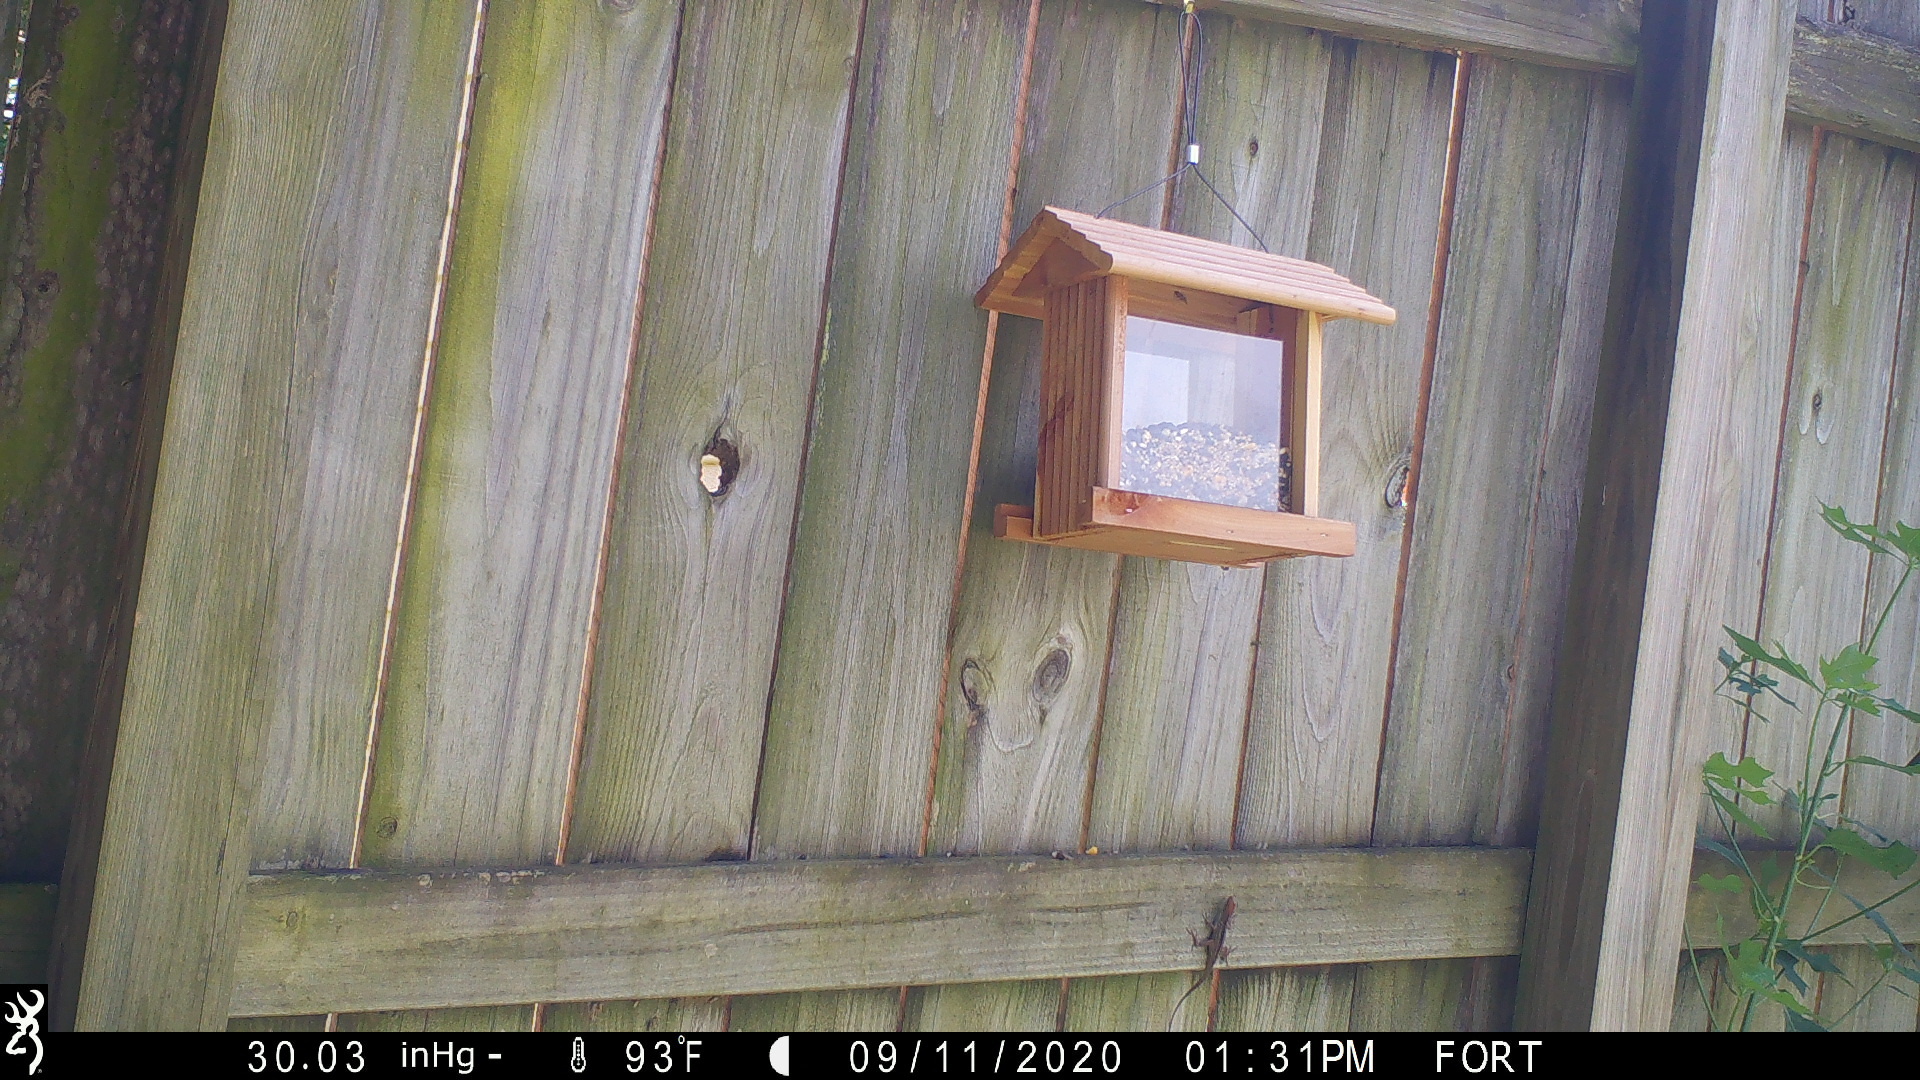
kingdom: Animalia
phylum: Chordata
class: Squamata
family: Dactyloidae
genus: Anolis
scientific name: Anolis sagrei
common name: Brown anole
